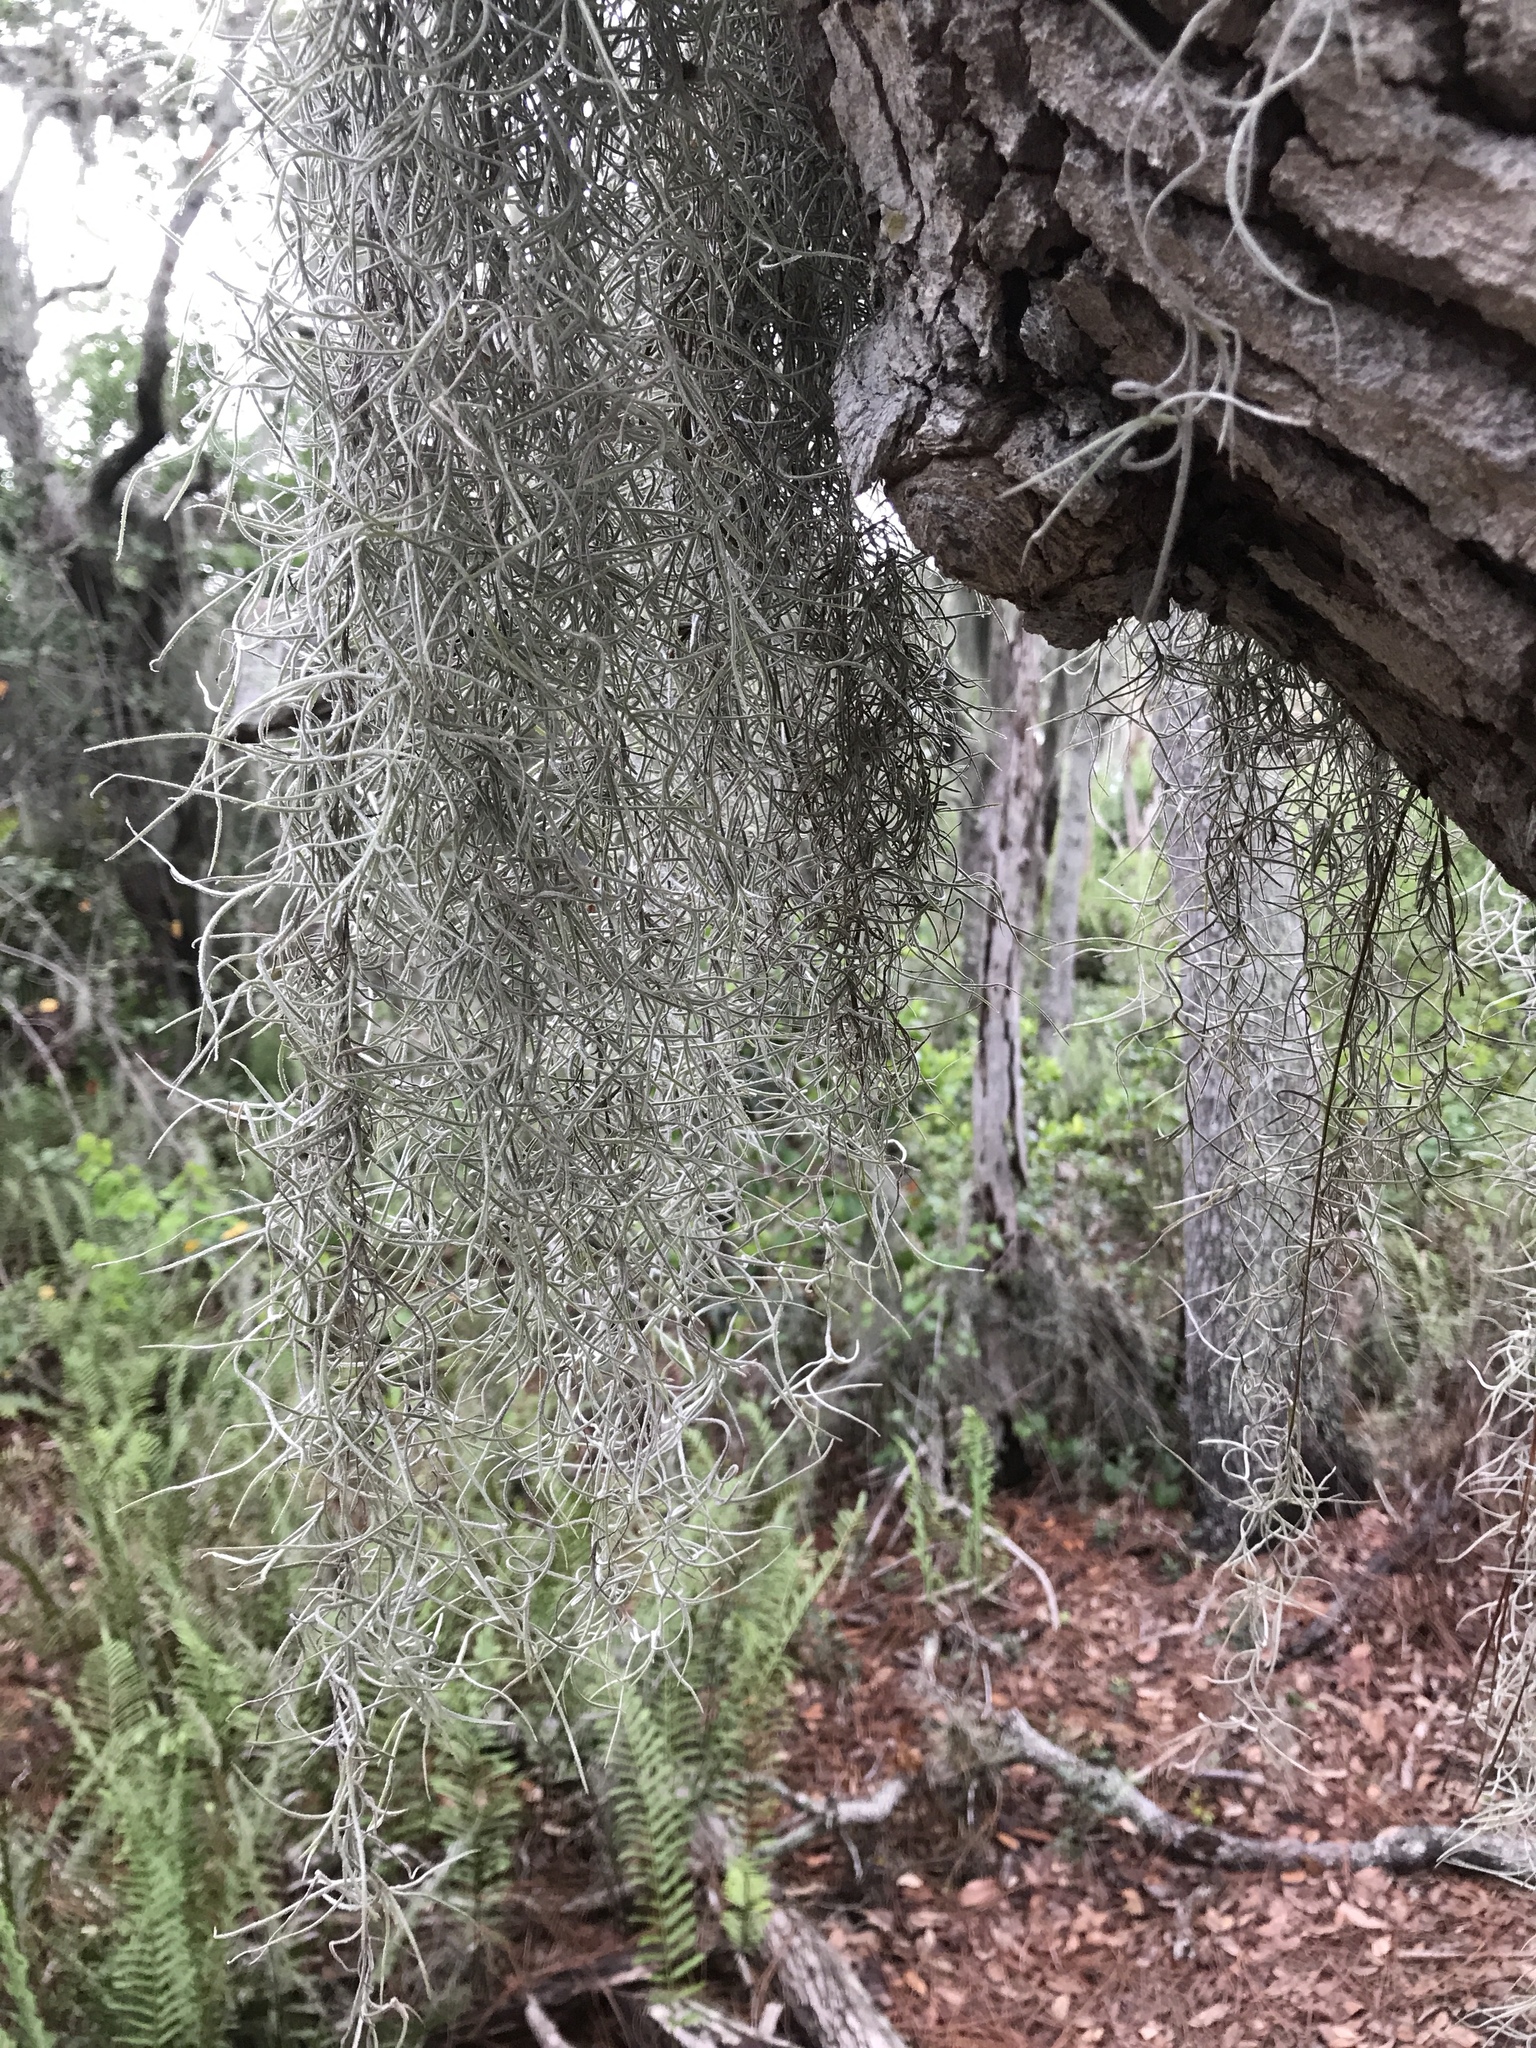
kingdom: Plantae
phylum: Tracheophyta
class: Liliopsida
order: Poales
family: Bromeliaceae
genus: Tillandsia
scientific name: Tillandsia usneoides
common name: Spanish moss
